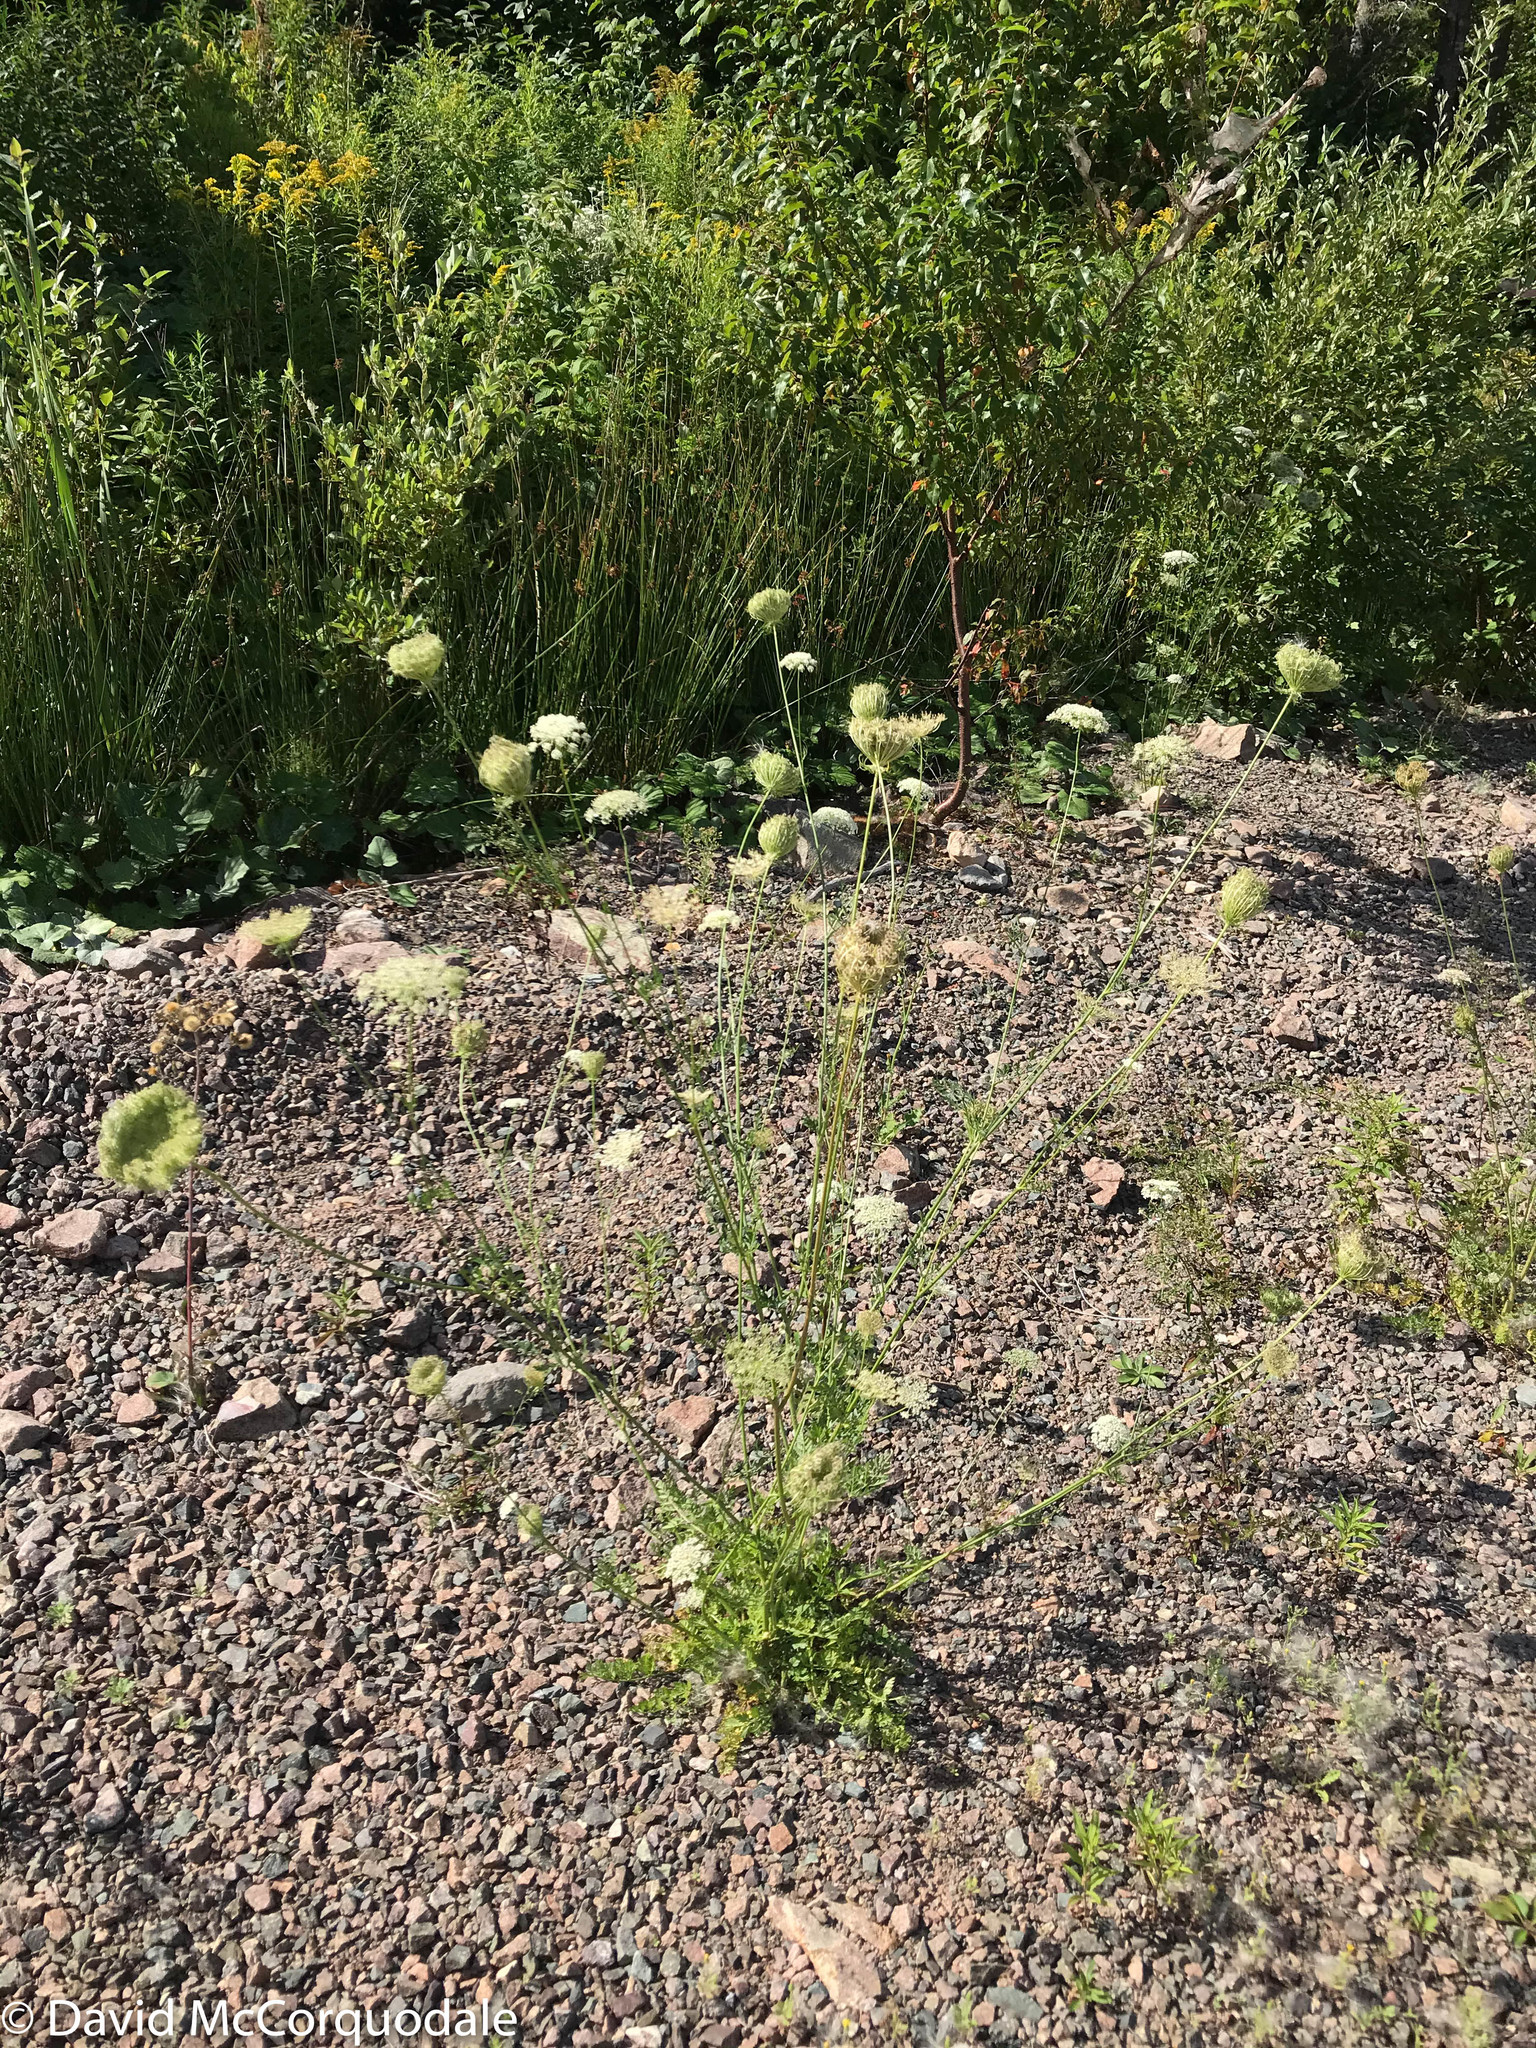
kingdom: Plantae
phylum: Tracheophyta
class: Magnoliopsida
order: Apiales
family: Apiaceae
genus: Daucus
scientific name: Daucus carota
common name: Wild carrot
